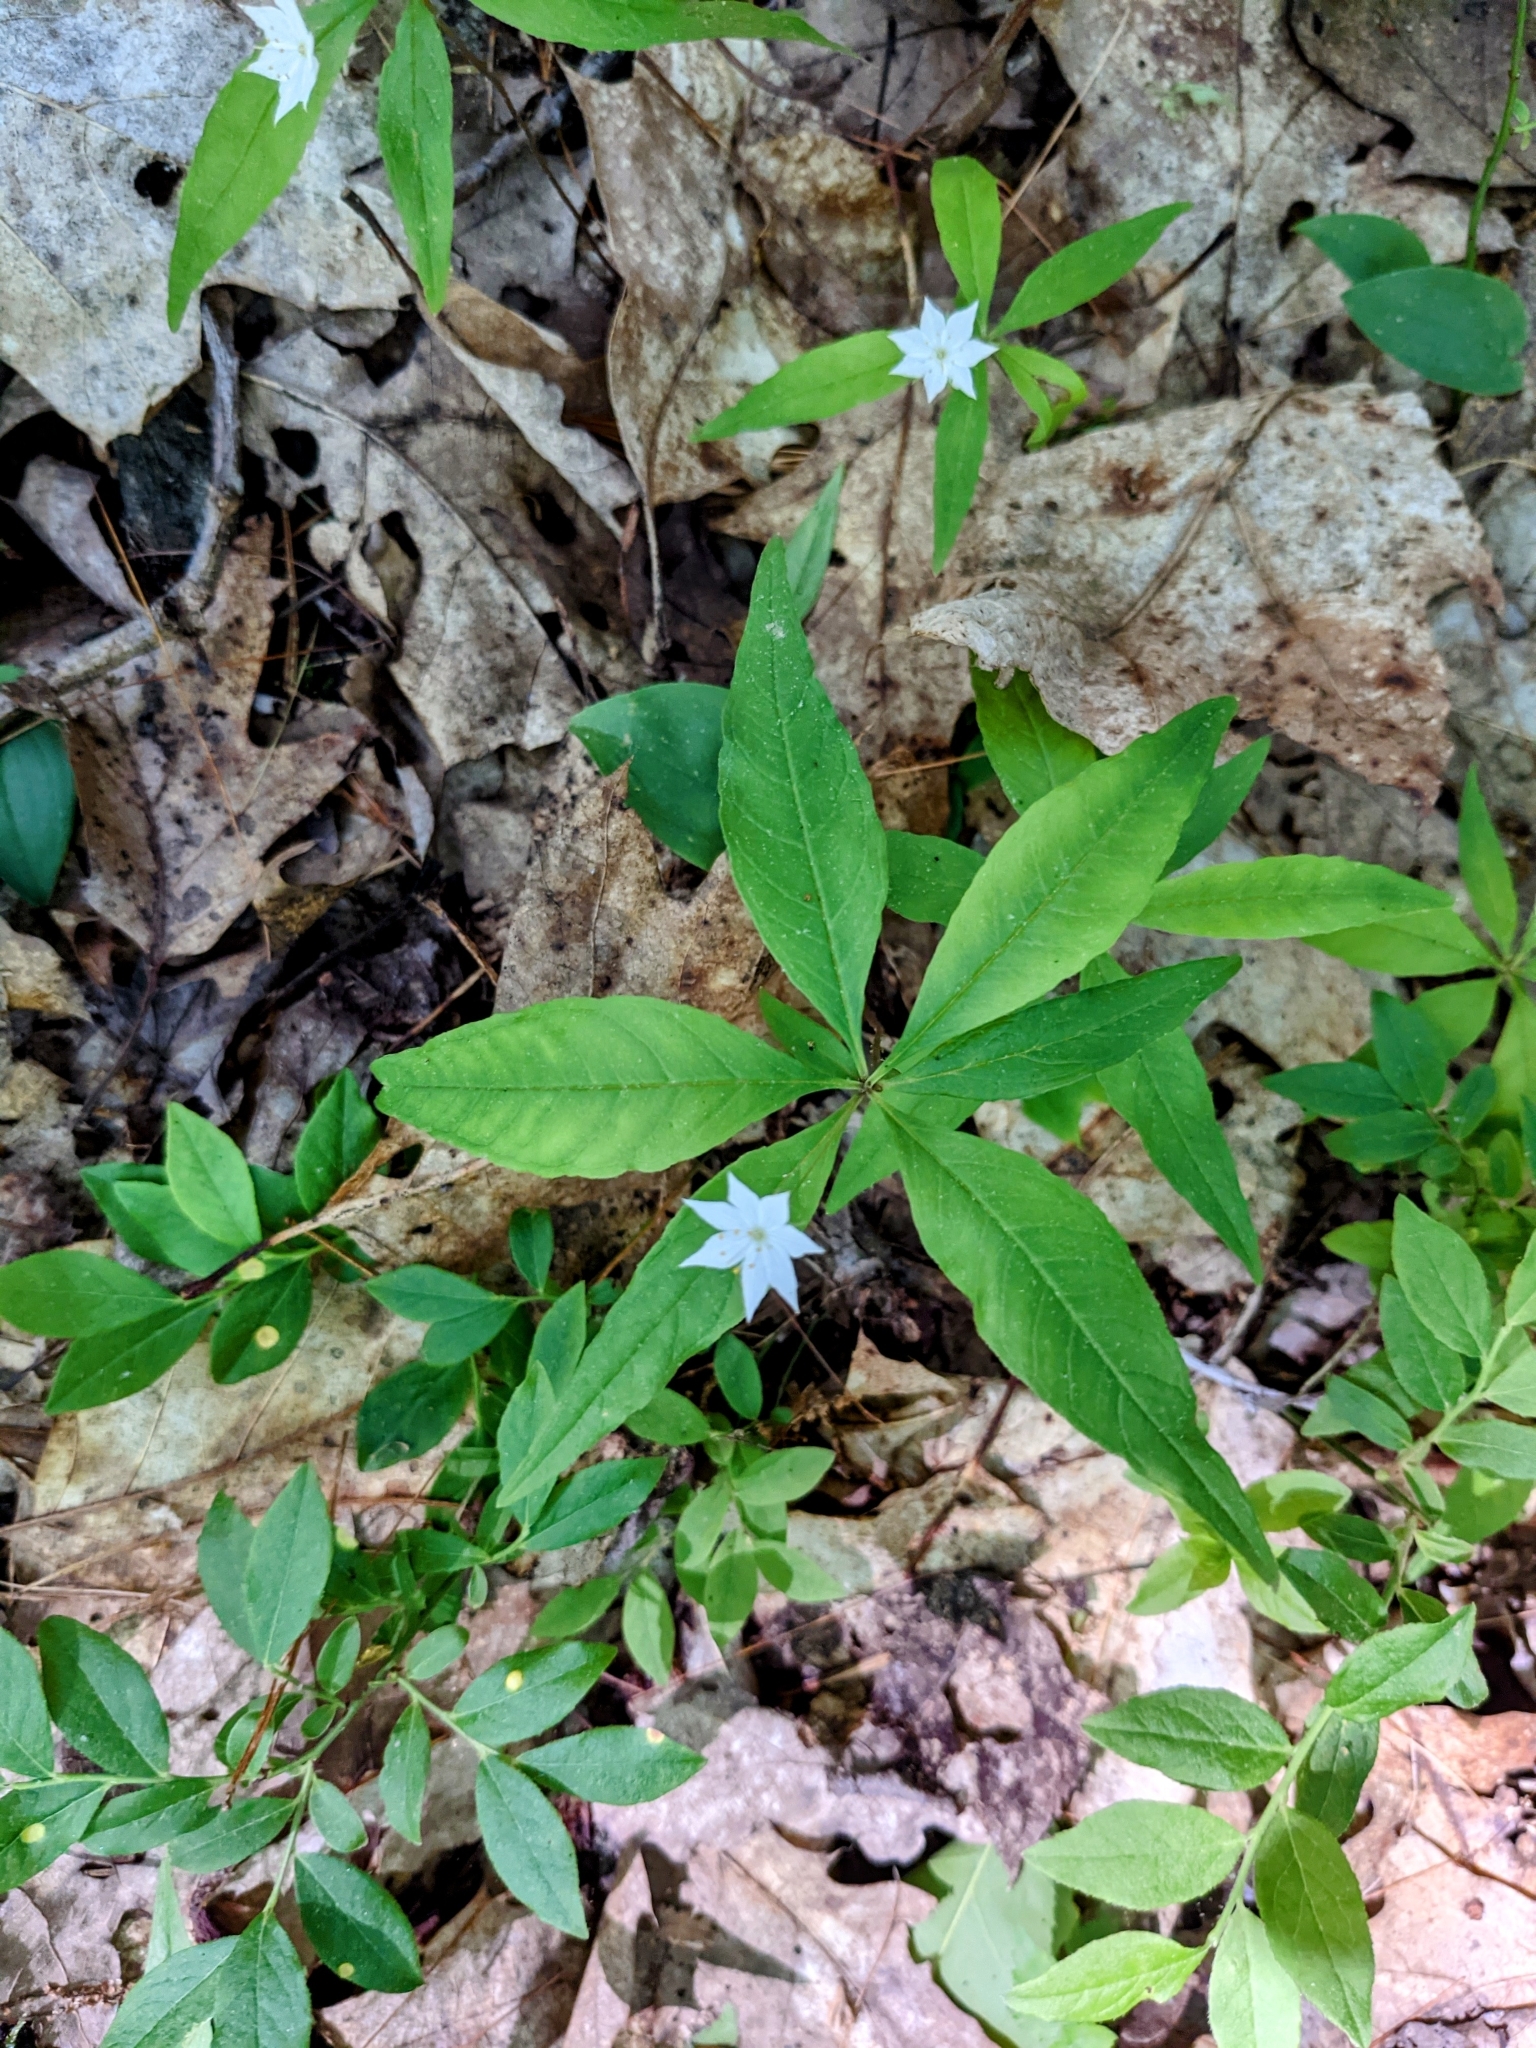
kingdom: Plantae
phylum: Tracheophyta
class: Magnoliopsida
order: Ericales
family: Primulaceae
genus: Lysimachia
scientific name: Lysimachia borealis
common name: American starflower
